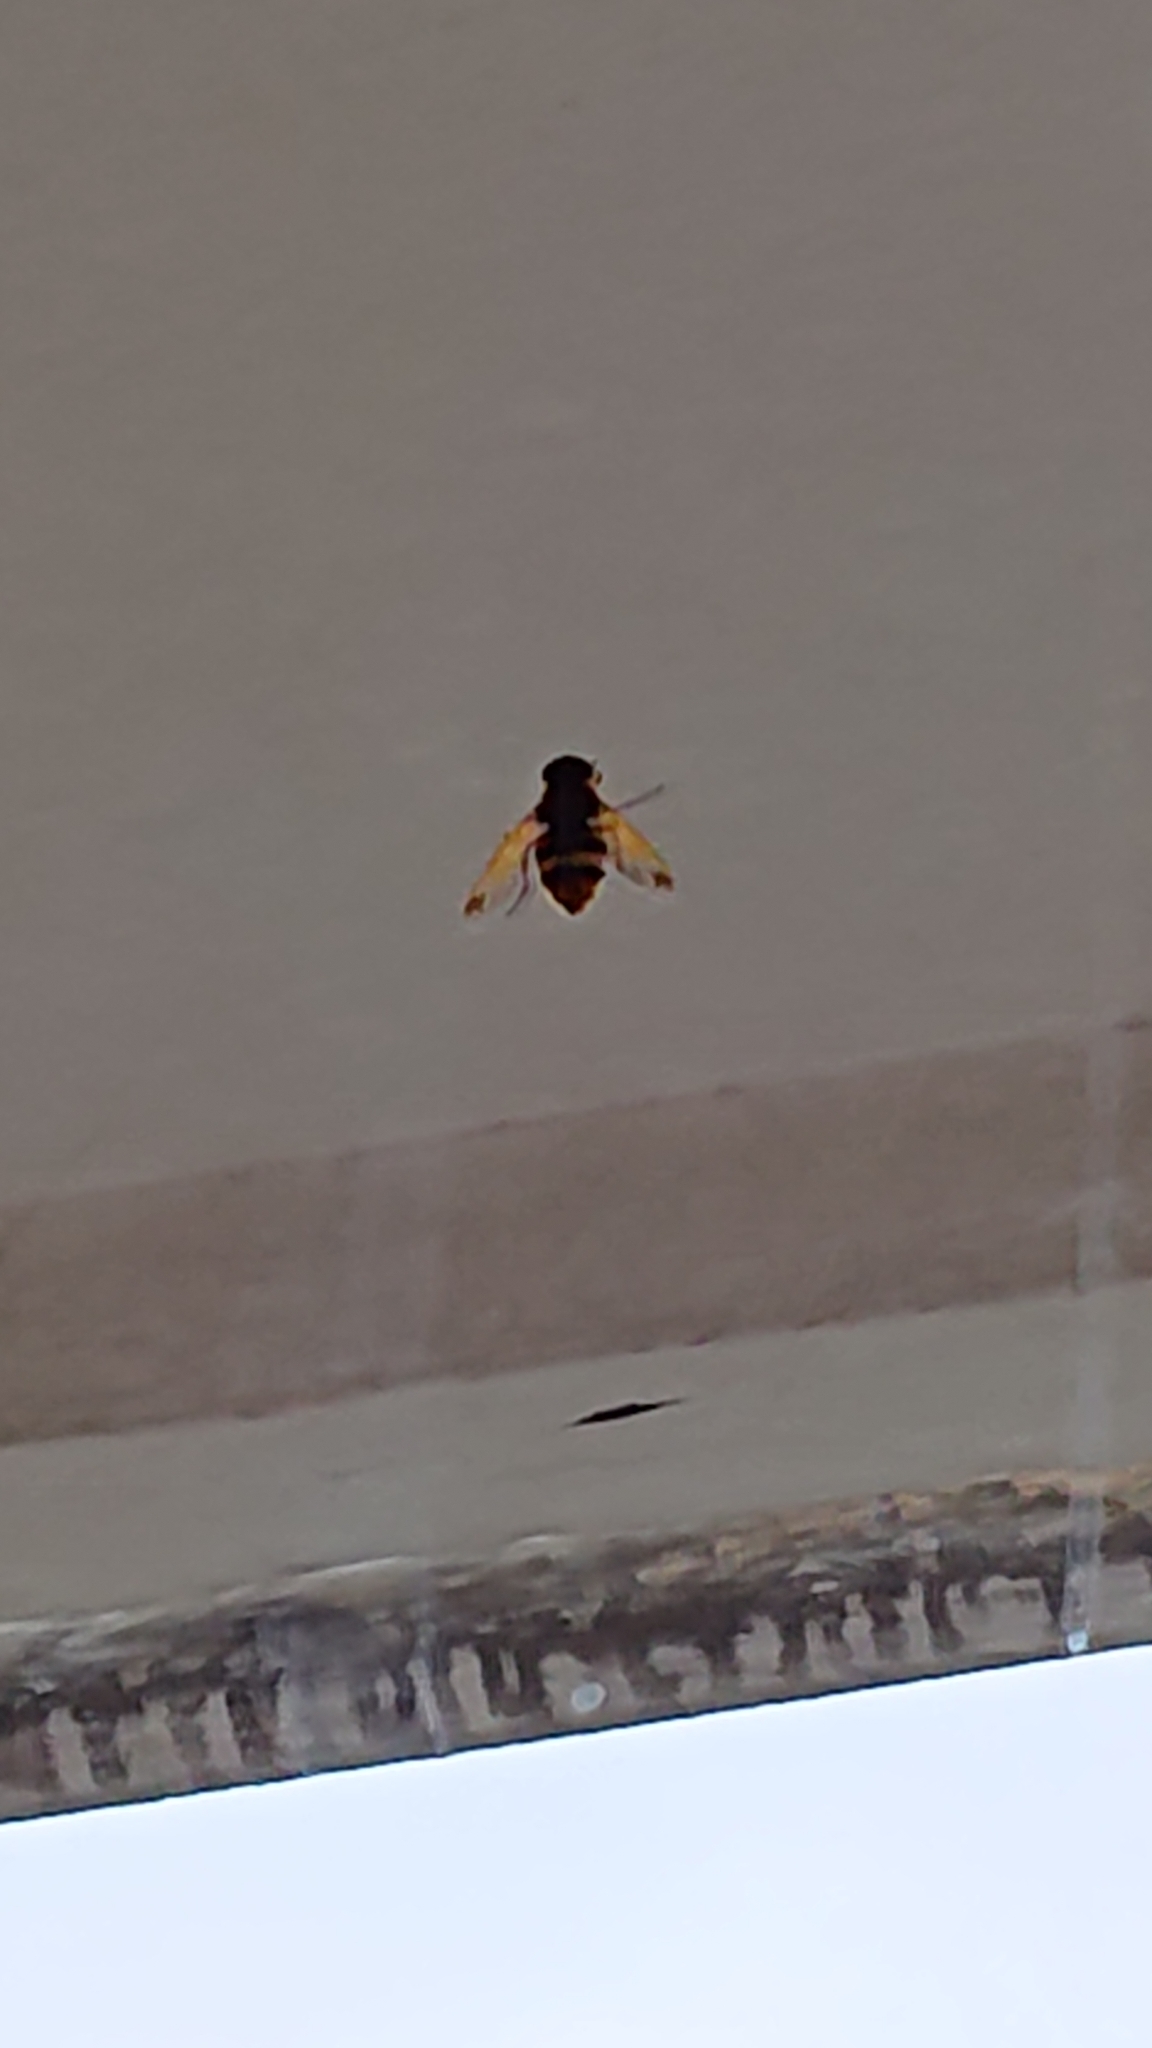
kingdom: Animalia
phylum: Arthropoda
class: Insecta
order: Diptera
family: Syrphidae
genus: Volucella
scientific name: Volucella
